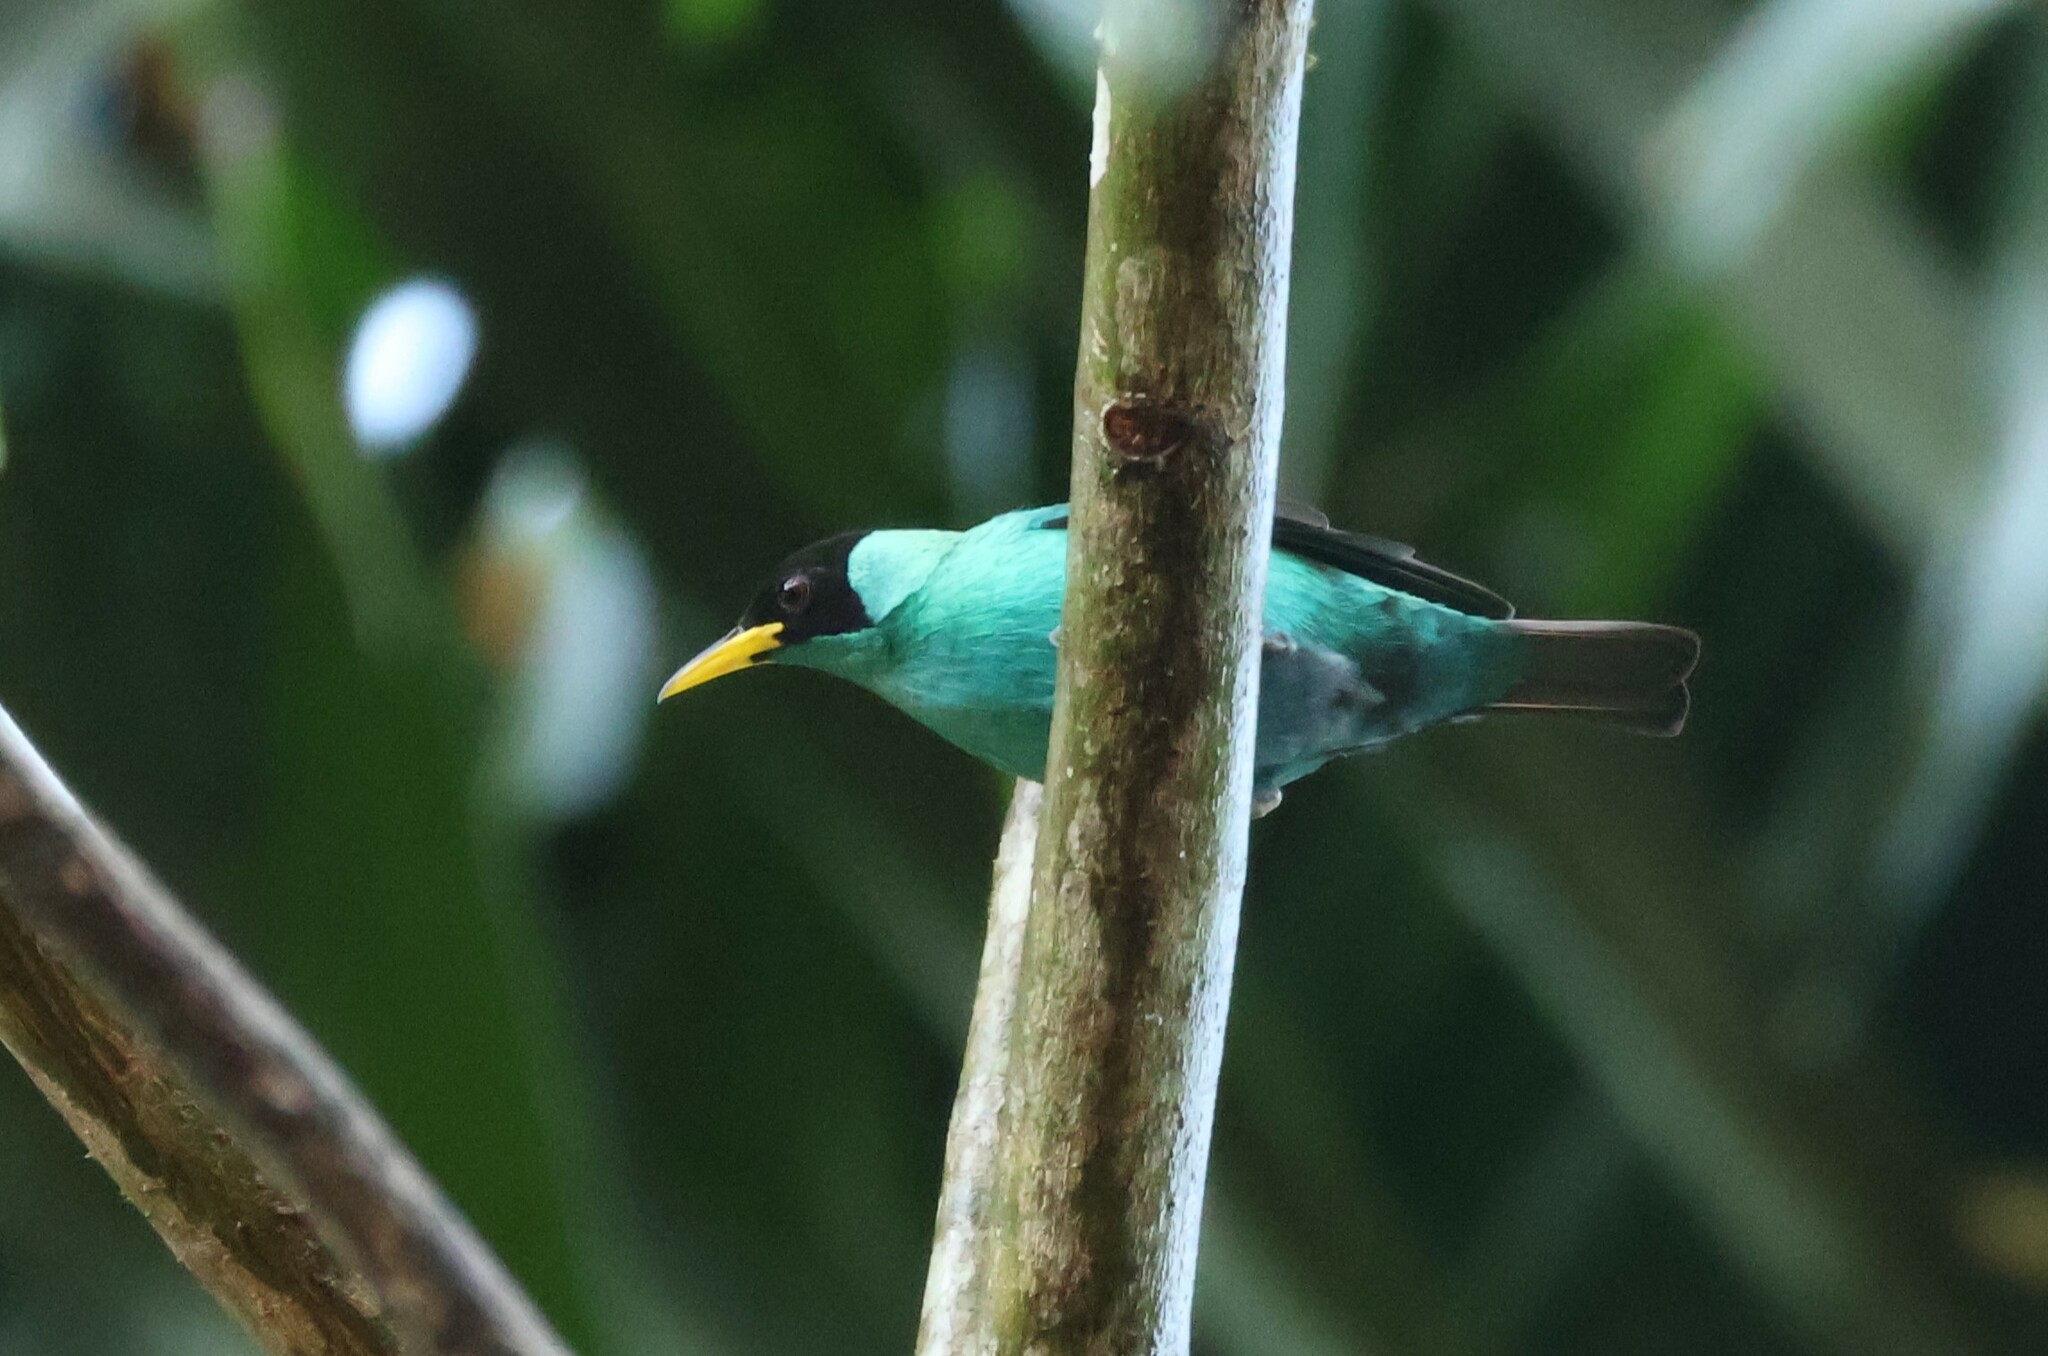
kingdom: Animalia
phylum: Chordata
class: Aves
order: Passeriformes
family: Thraupidae
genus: Chlorophanes
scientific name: Chlorophanes spiza
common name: Green honeycreeper
